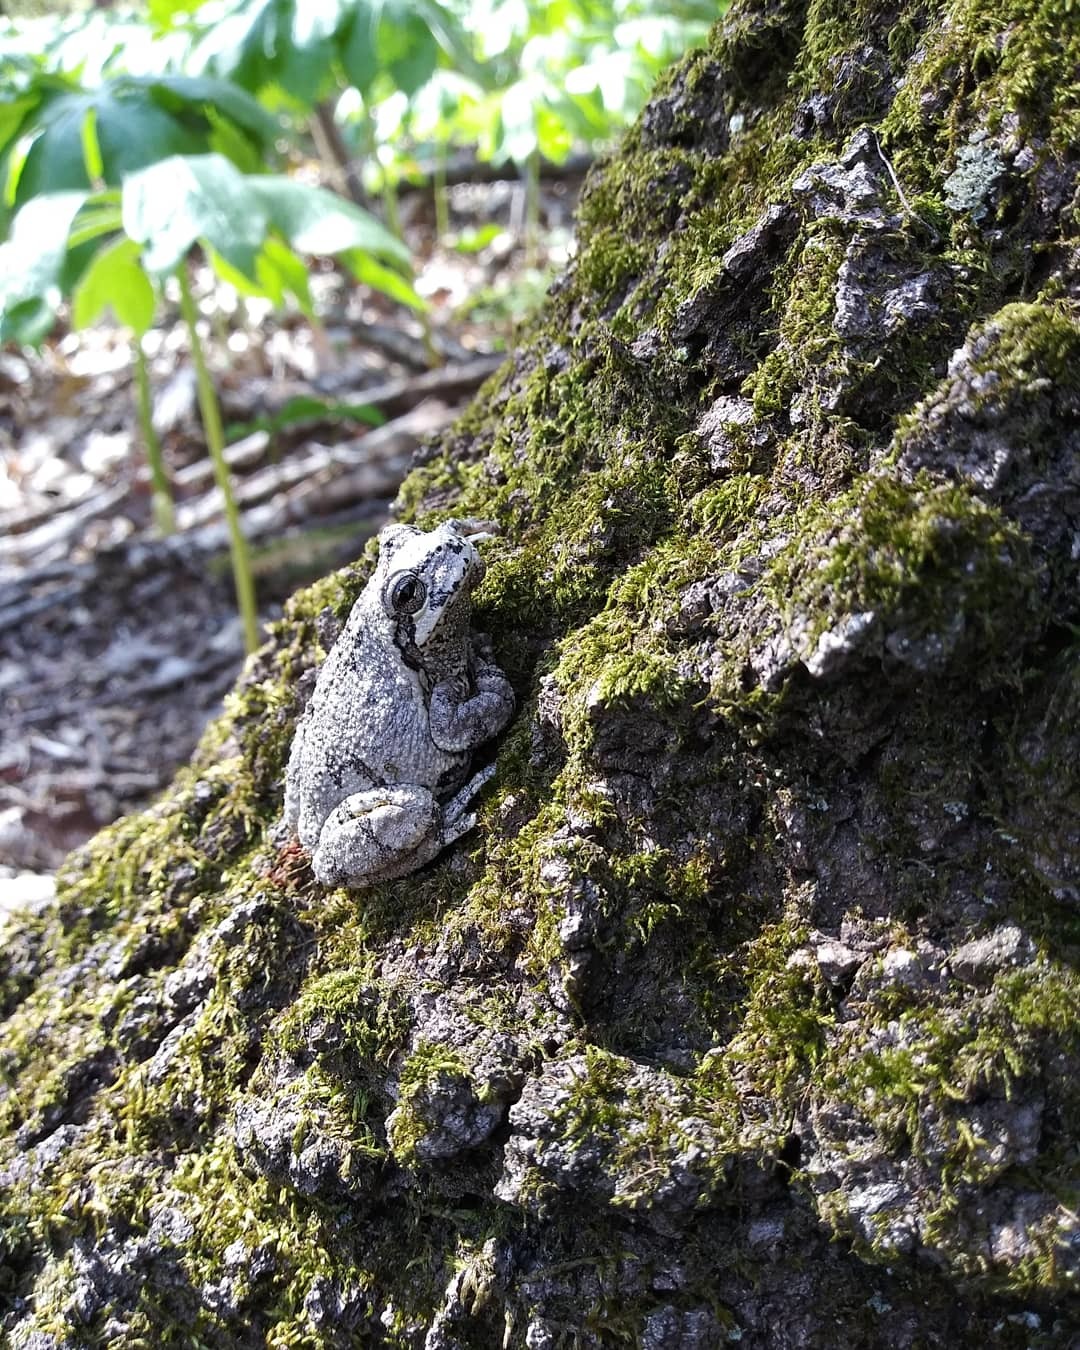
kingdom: Animalia
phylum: Chordata
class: Amphibia
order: Anura
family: Hylidae
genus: Hyla
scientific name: Hyla
